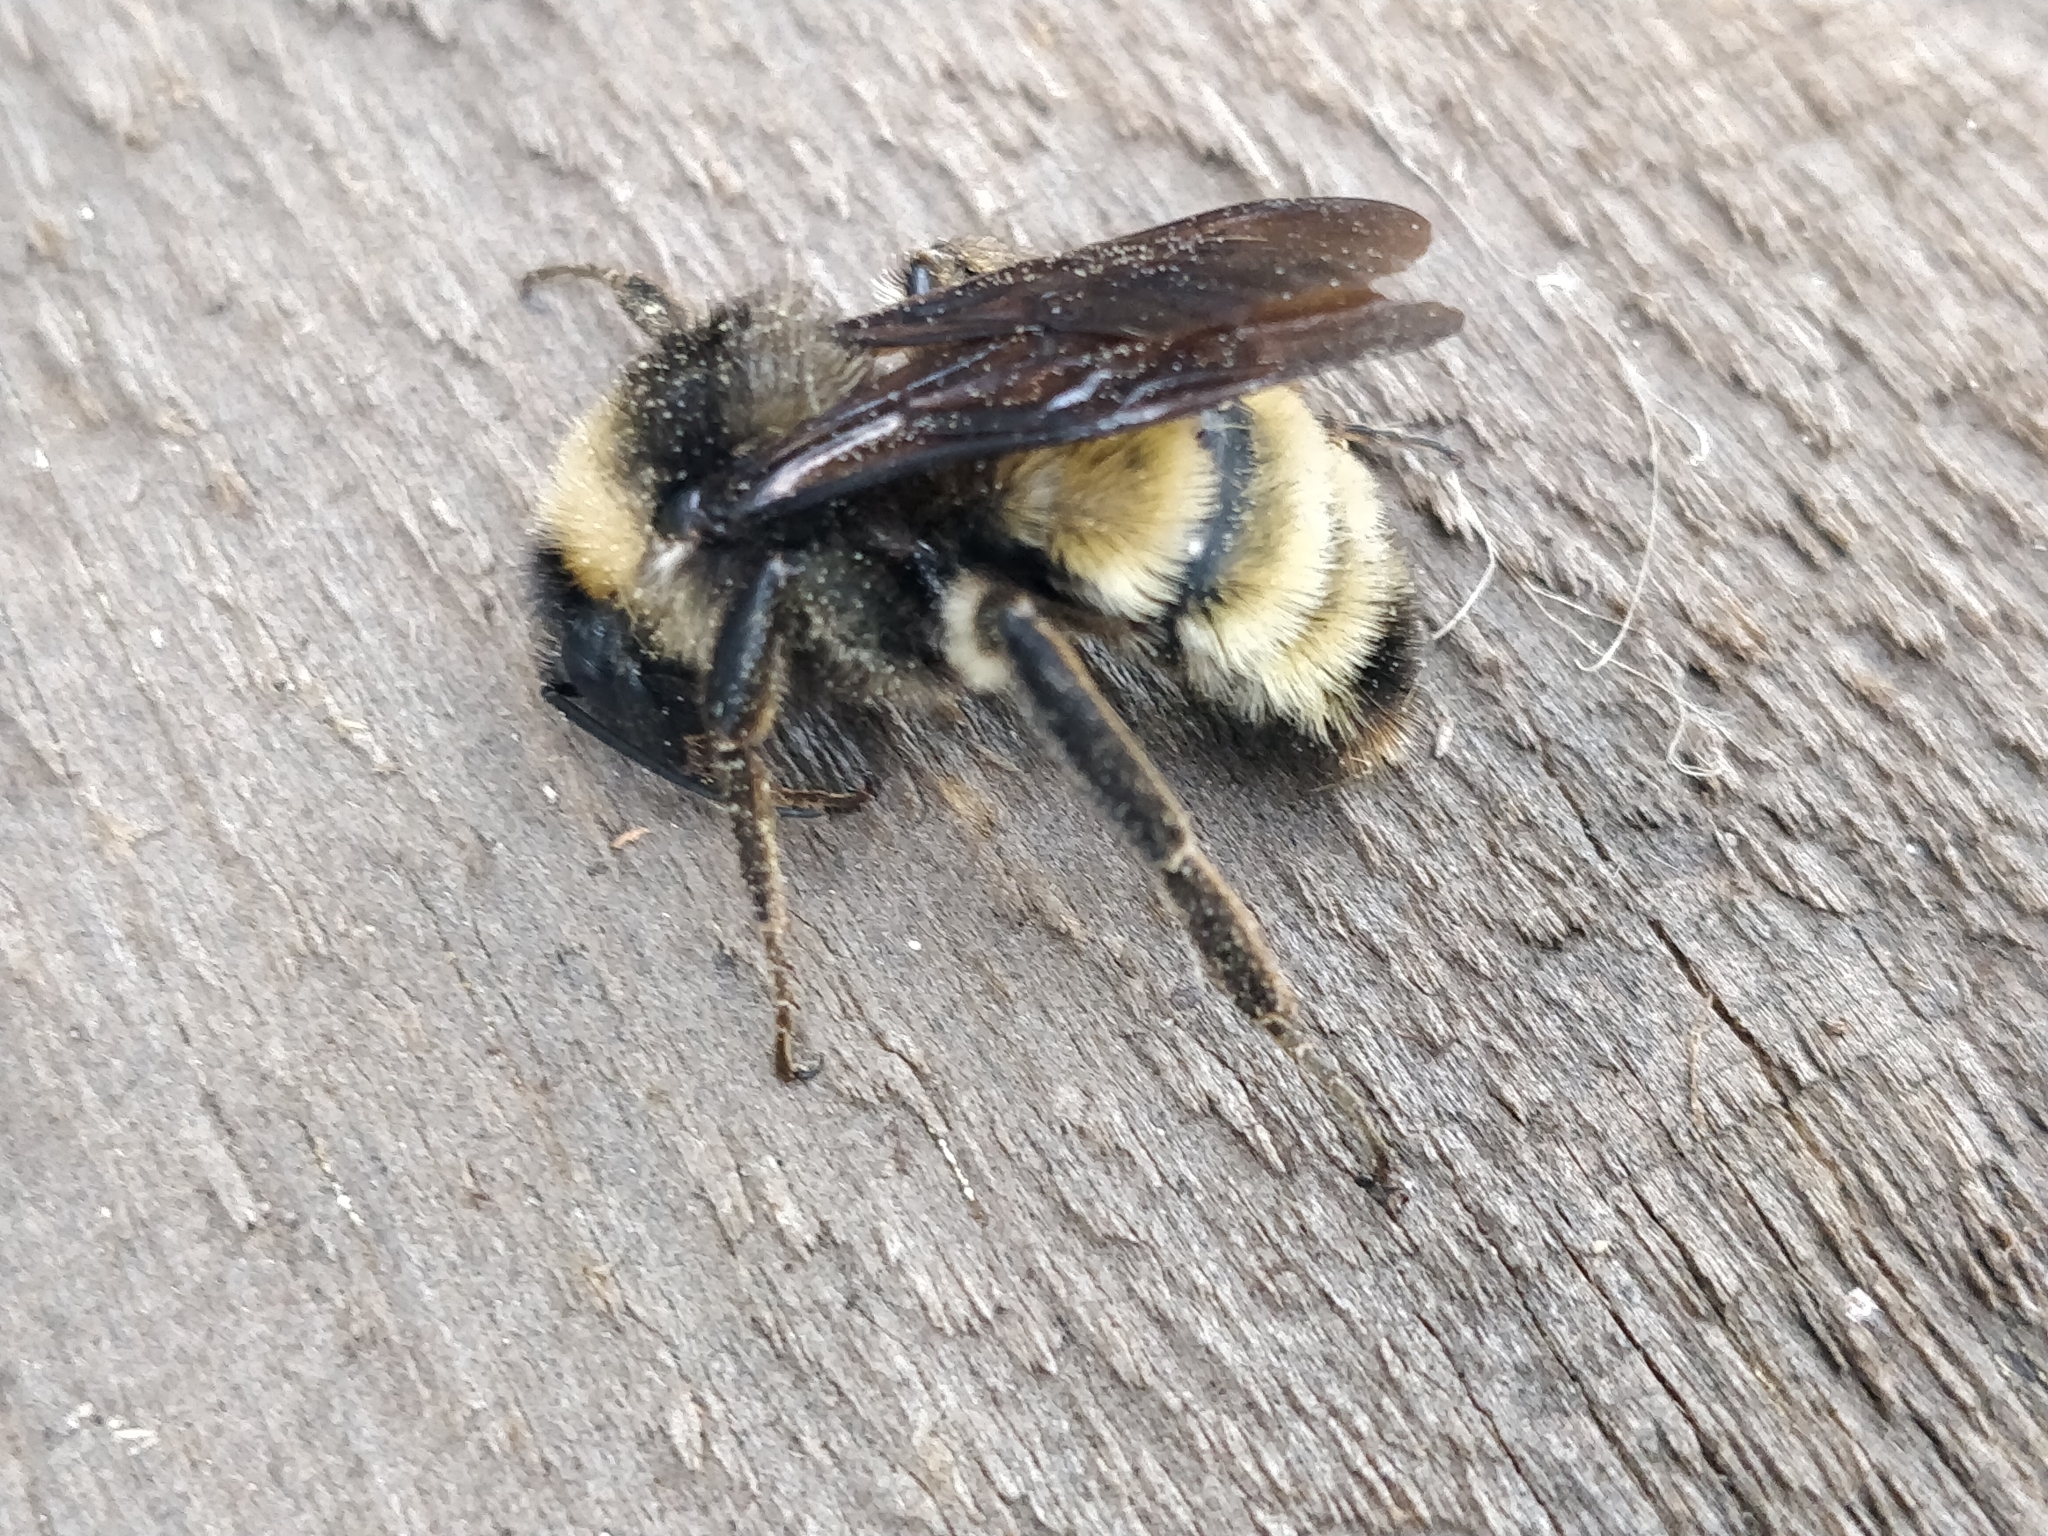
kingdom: Animalia
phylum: Arthropoda
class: Insecta
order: Hymenoptera
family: Apidae
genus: Bombus
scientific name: Bombus pensylvanicus
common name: Bumble bee
